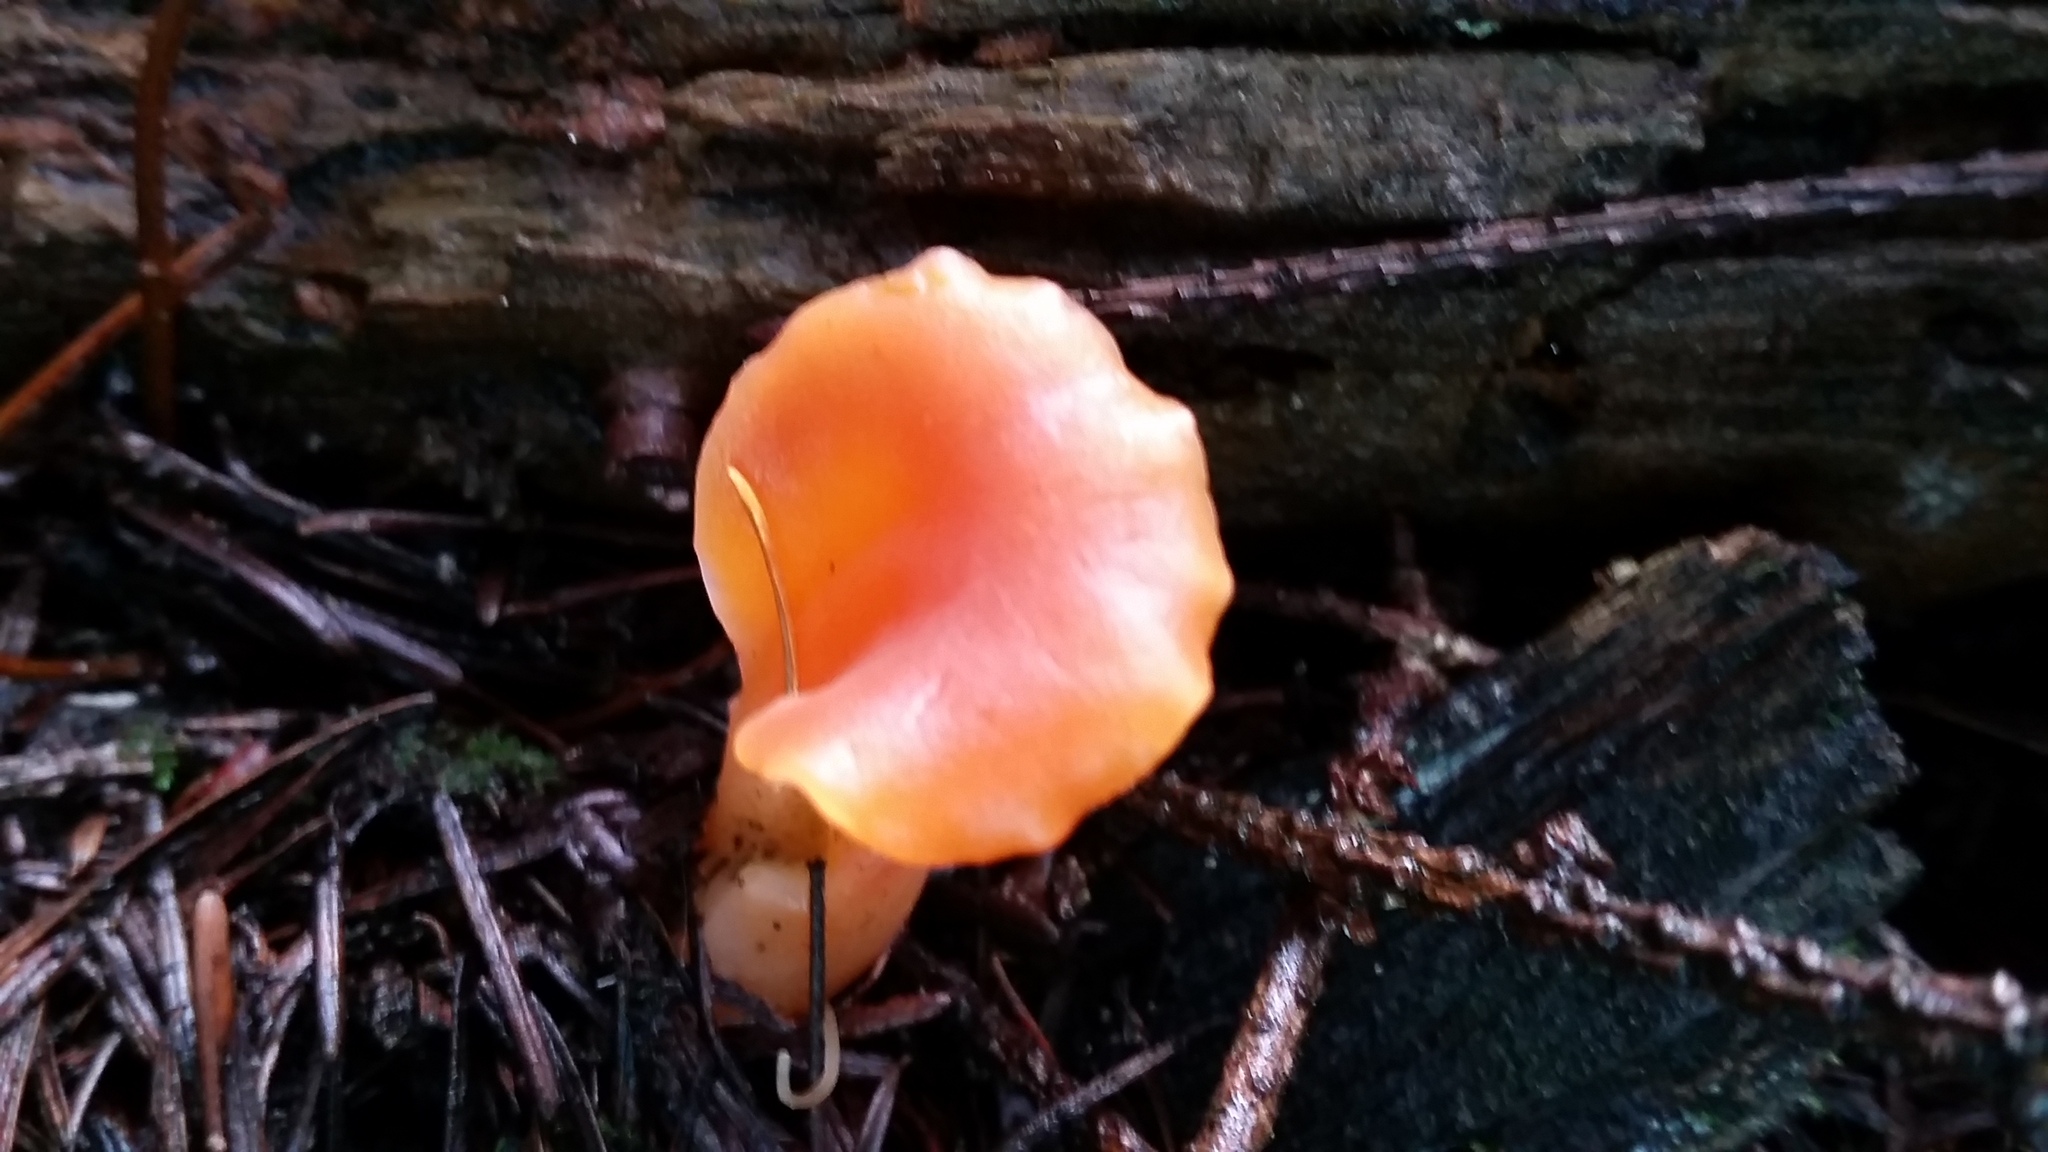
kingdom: Fungi
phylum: Basidiomycota
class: Agaricomycetes
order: Auriculariales
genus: Guepinia
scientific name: Guepinia helvelloides
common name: Salmon salad
